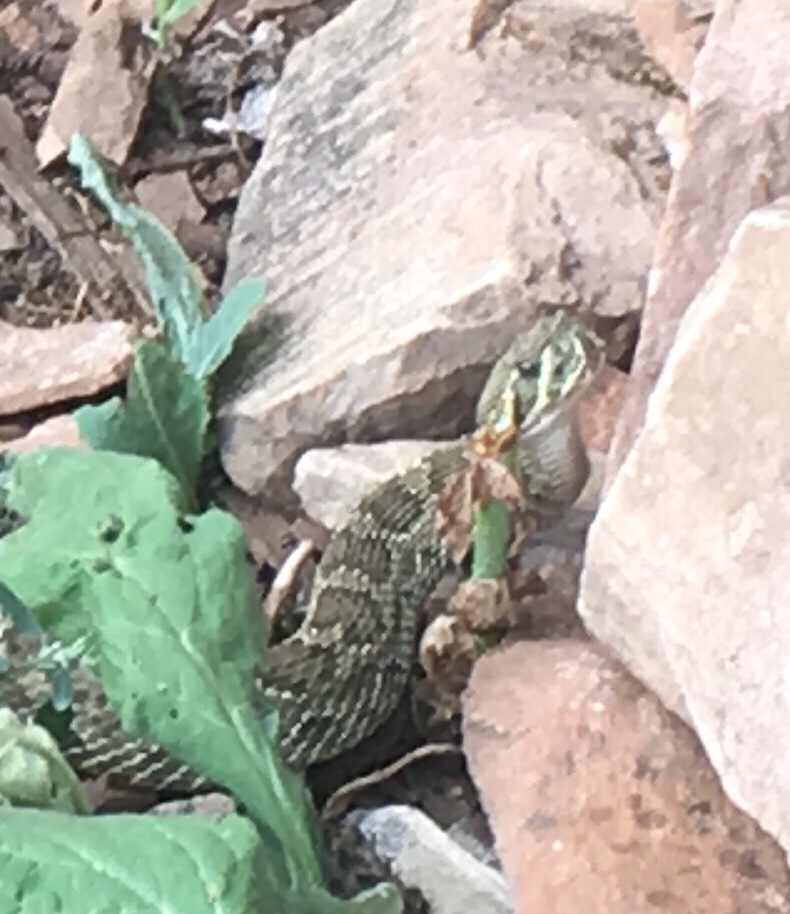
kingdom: Animalia
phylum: Chordata
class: Squamata
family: Viperidae
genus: Crotalus
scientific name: Crotalus viridis
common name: Prairie rattlesnake
